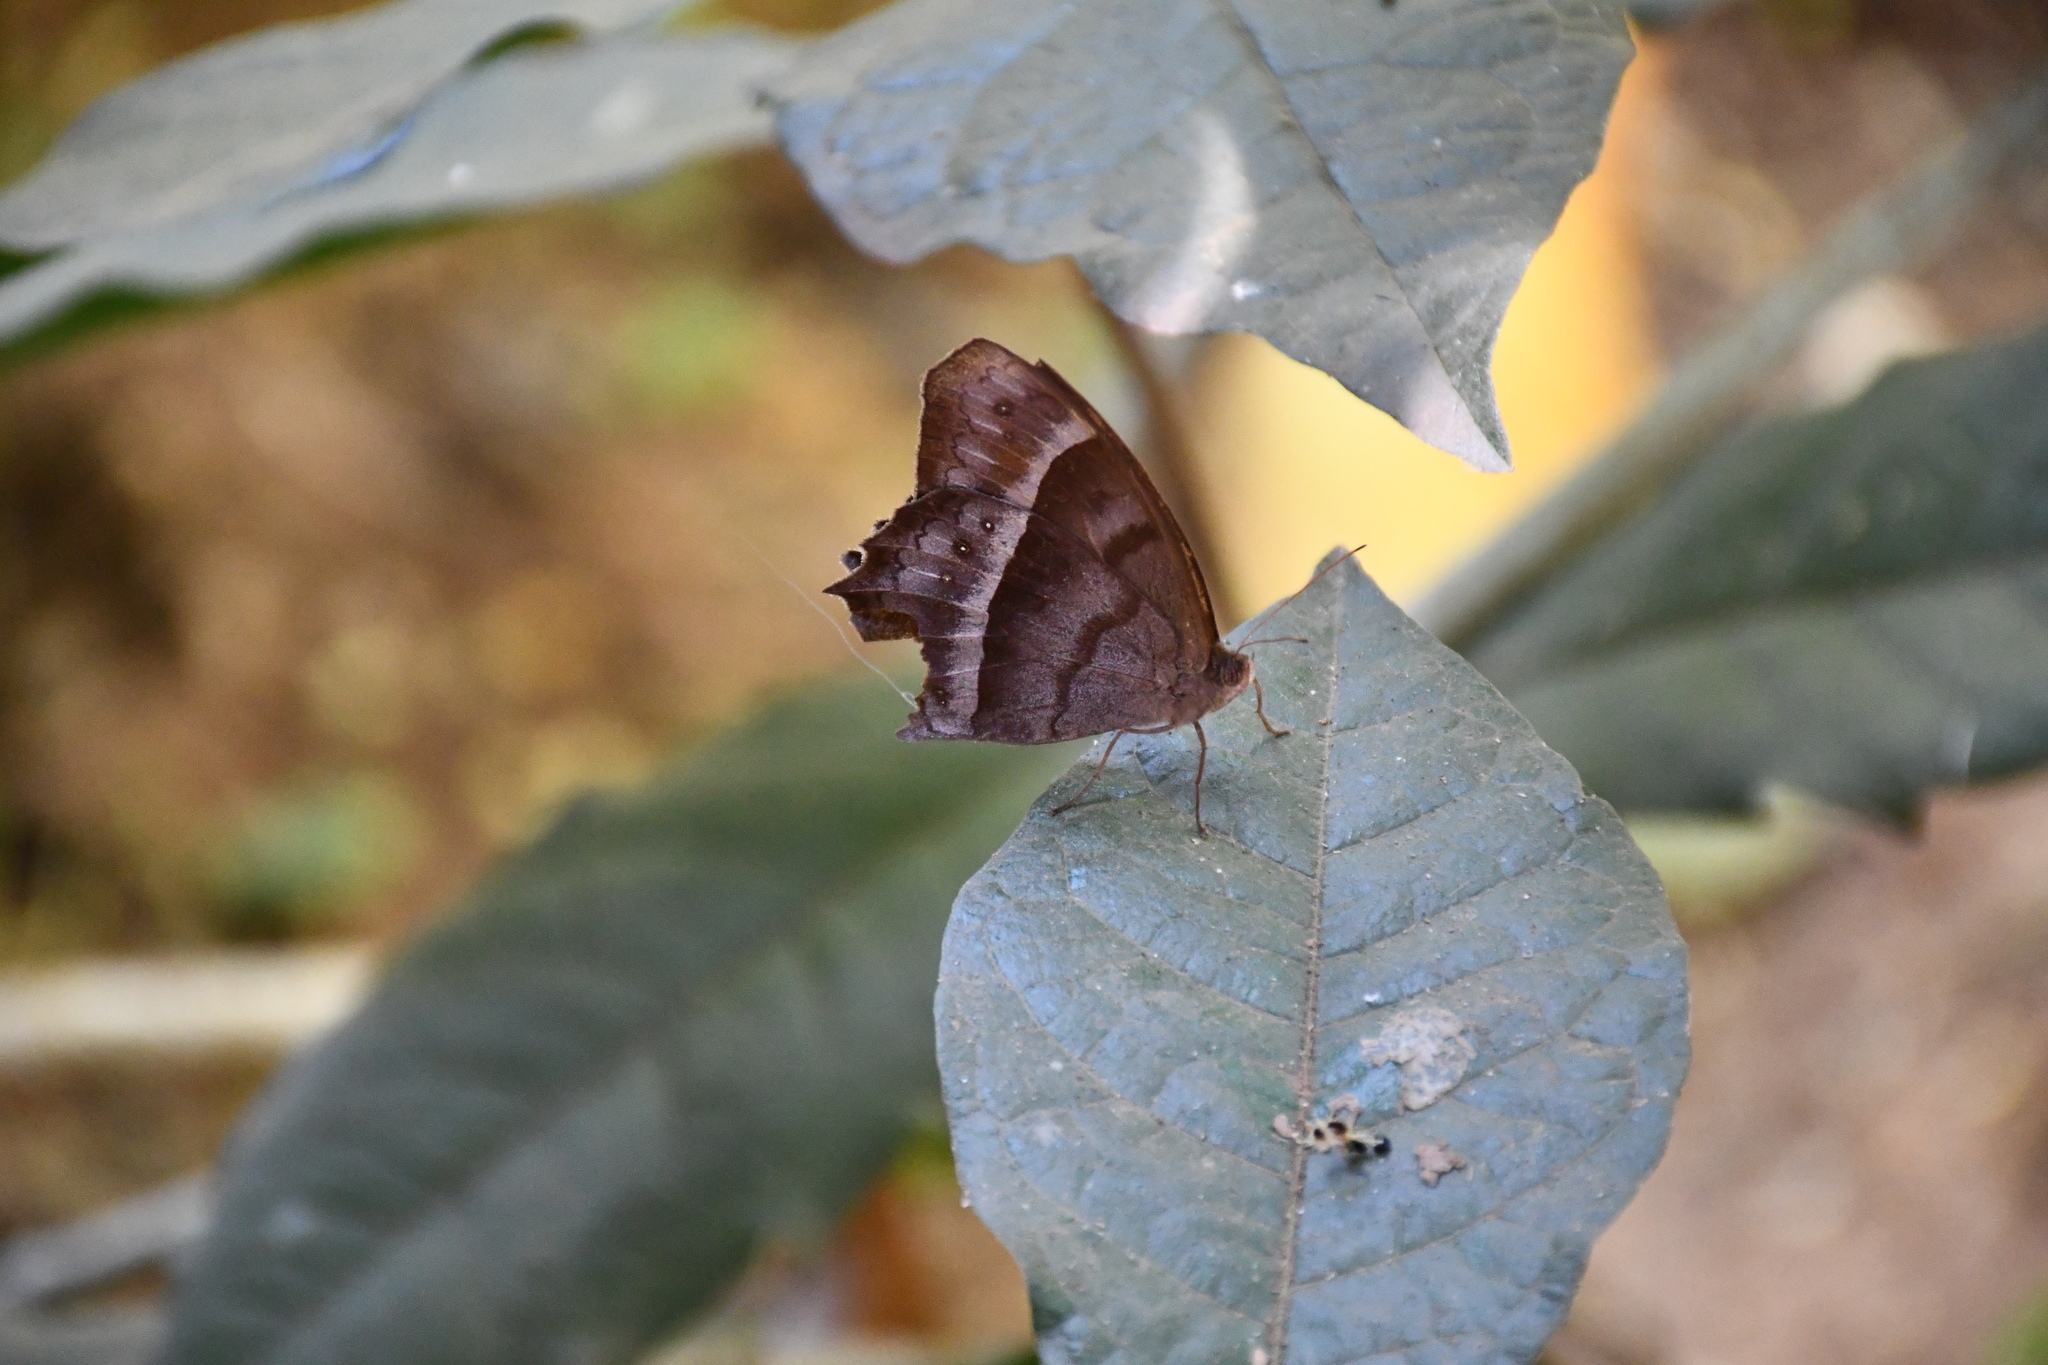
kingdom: Animalia
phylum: Arthropoda
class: Insecta
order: Lepidoptera
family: Nymphalidae
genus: Taygetis
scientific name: Taygetis thamyra
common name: Thamyra satyr
